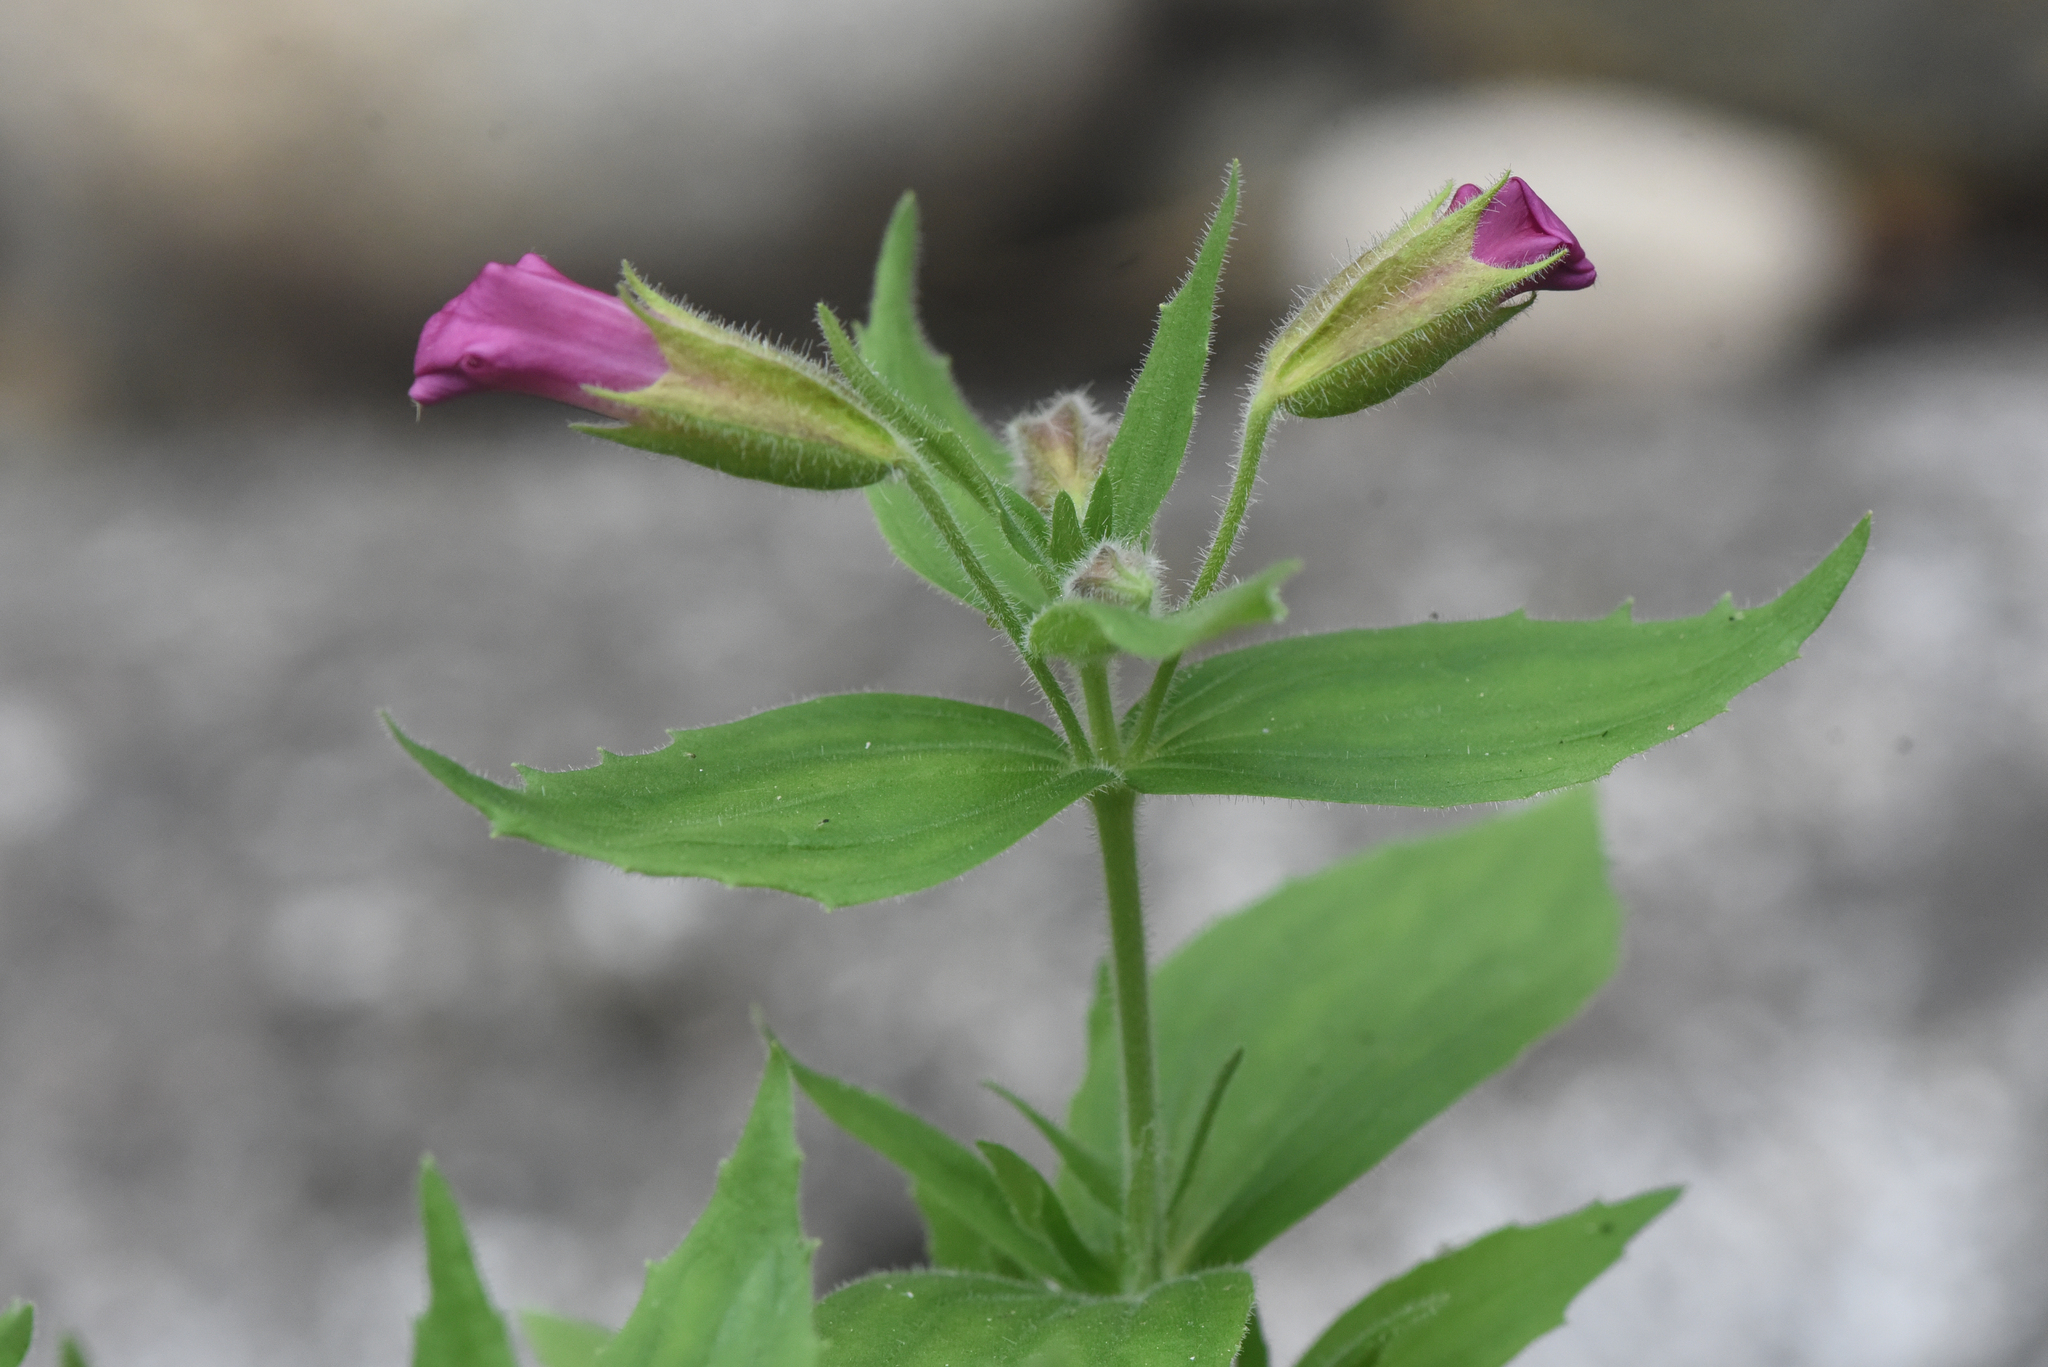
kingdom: Plantae
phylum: Tracheophyta
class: Magnoliopsida
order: Lamiales
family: Phrymaceae
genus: Erythranthe
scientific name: Erythranthe lewisii
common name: Lewis's monkey-flower
